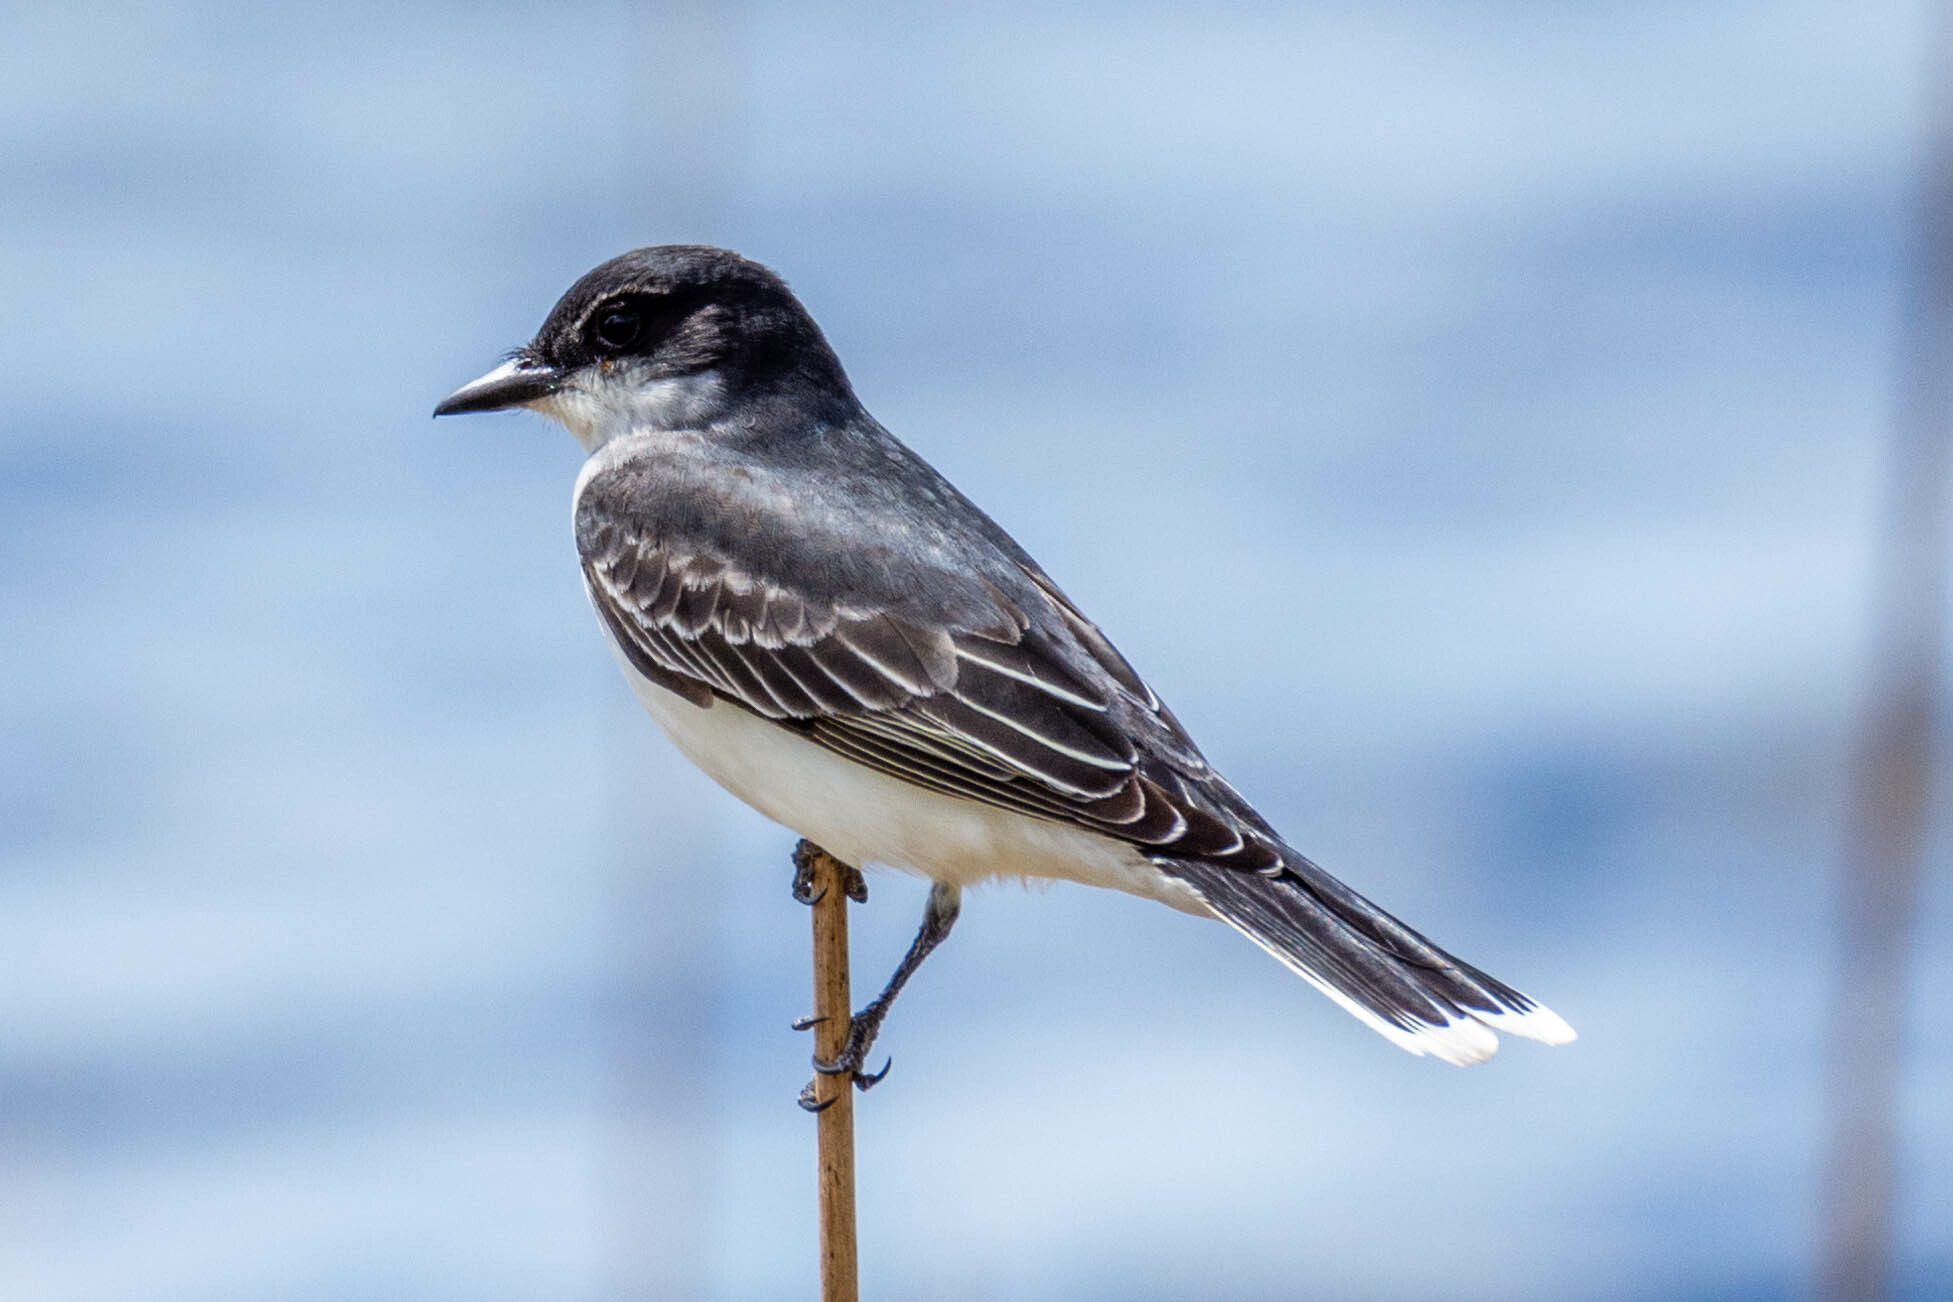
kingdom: Animalia
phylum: Chordata
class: Aves
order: Passeriformes
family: Tyrannidae
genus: Tyrannus
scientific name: Tyrannus tyrannus
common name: Eastern kingbird
